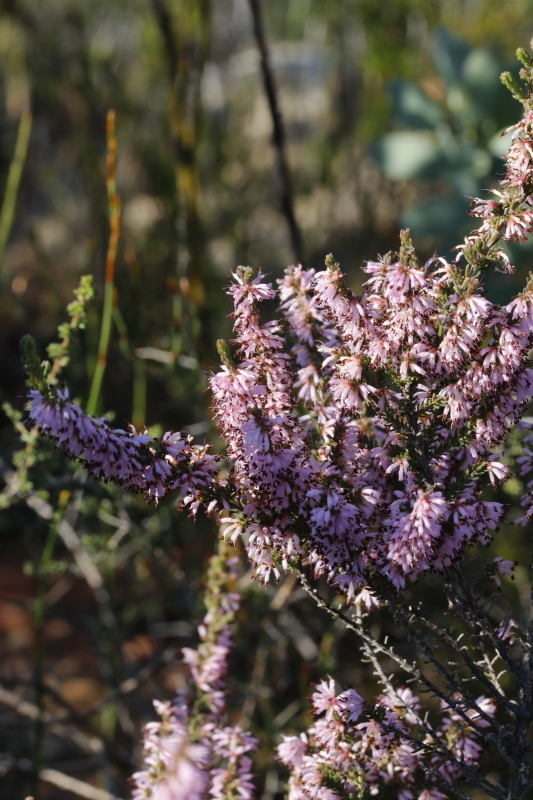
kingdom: Plantae
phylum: Tracheophyta
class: Magnoliopsida
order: Ericales
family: Ericaceae
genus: Erica
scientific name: Erica glabra
